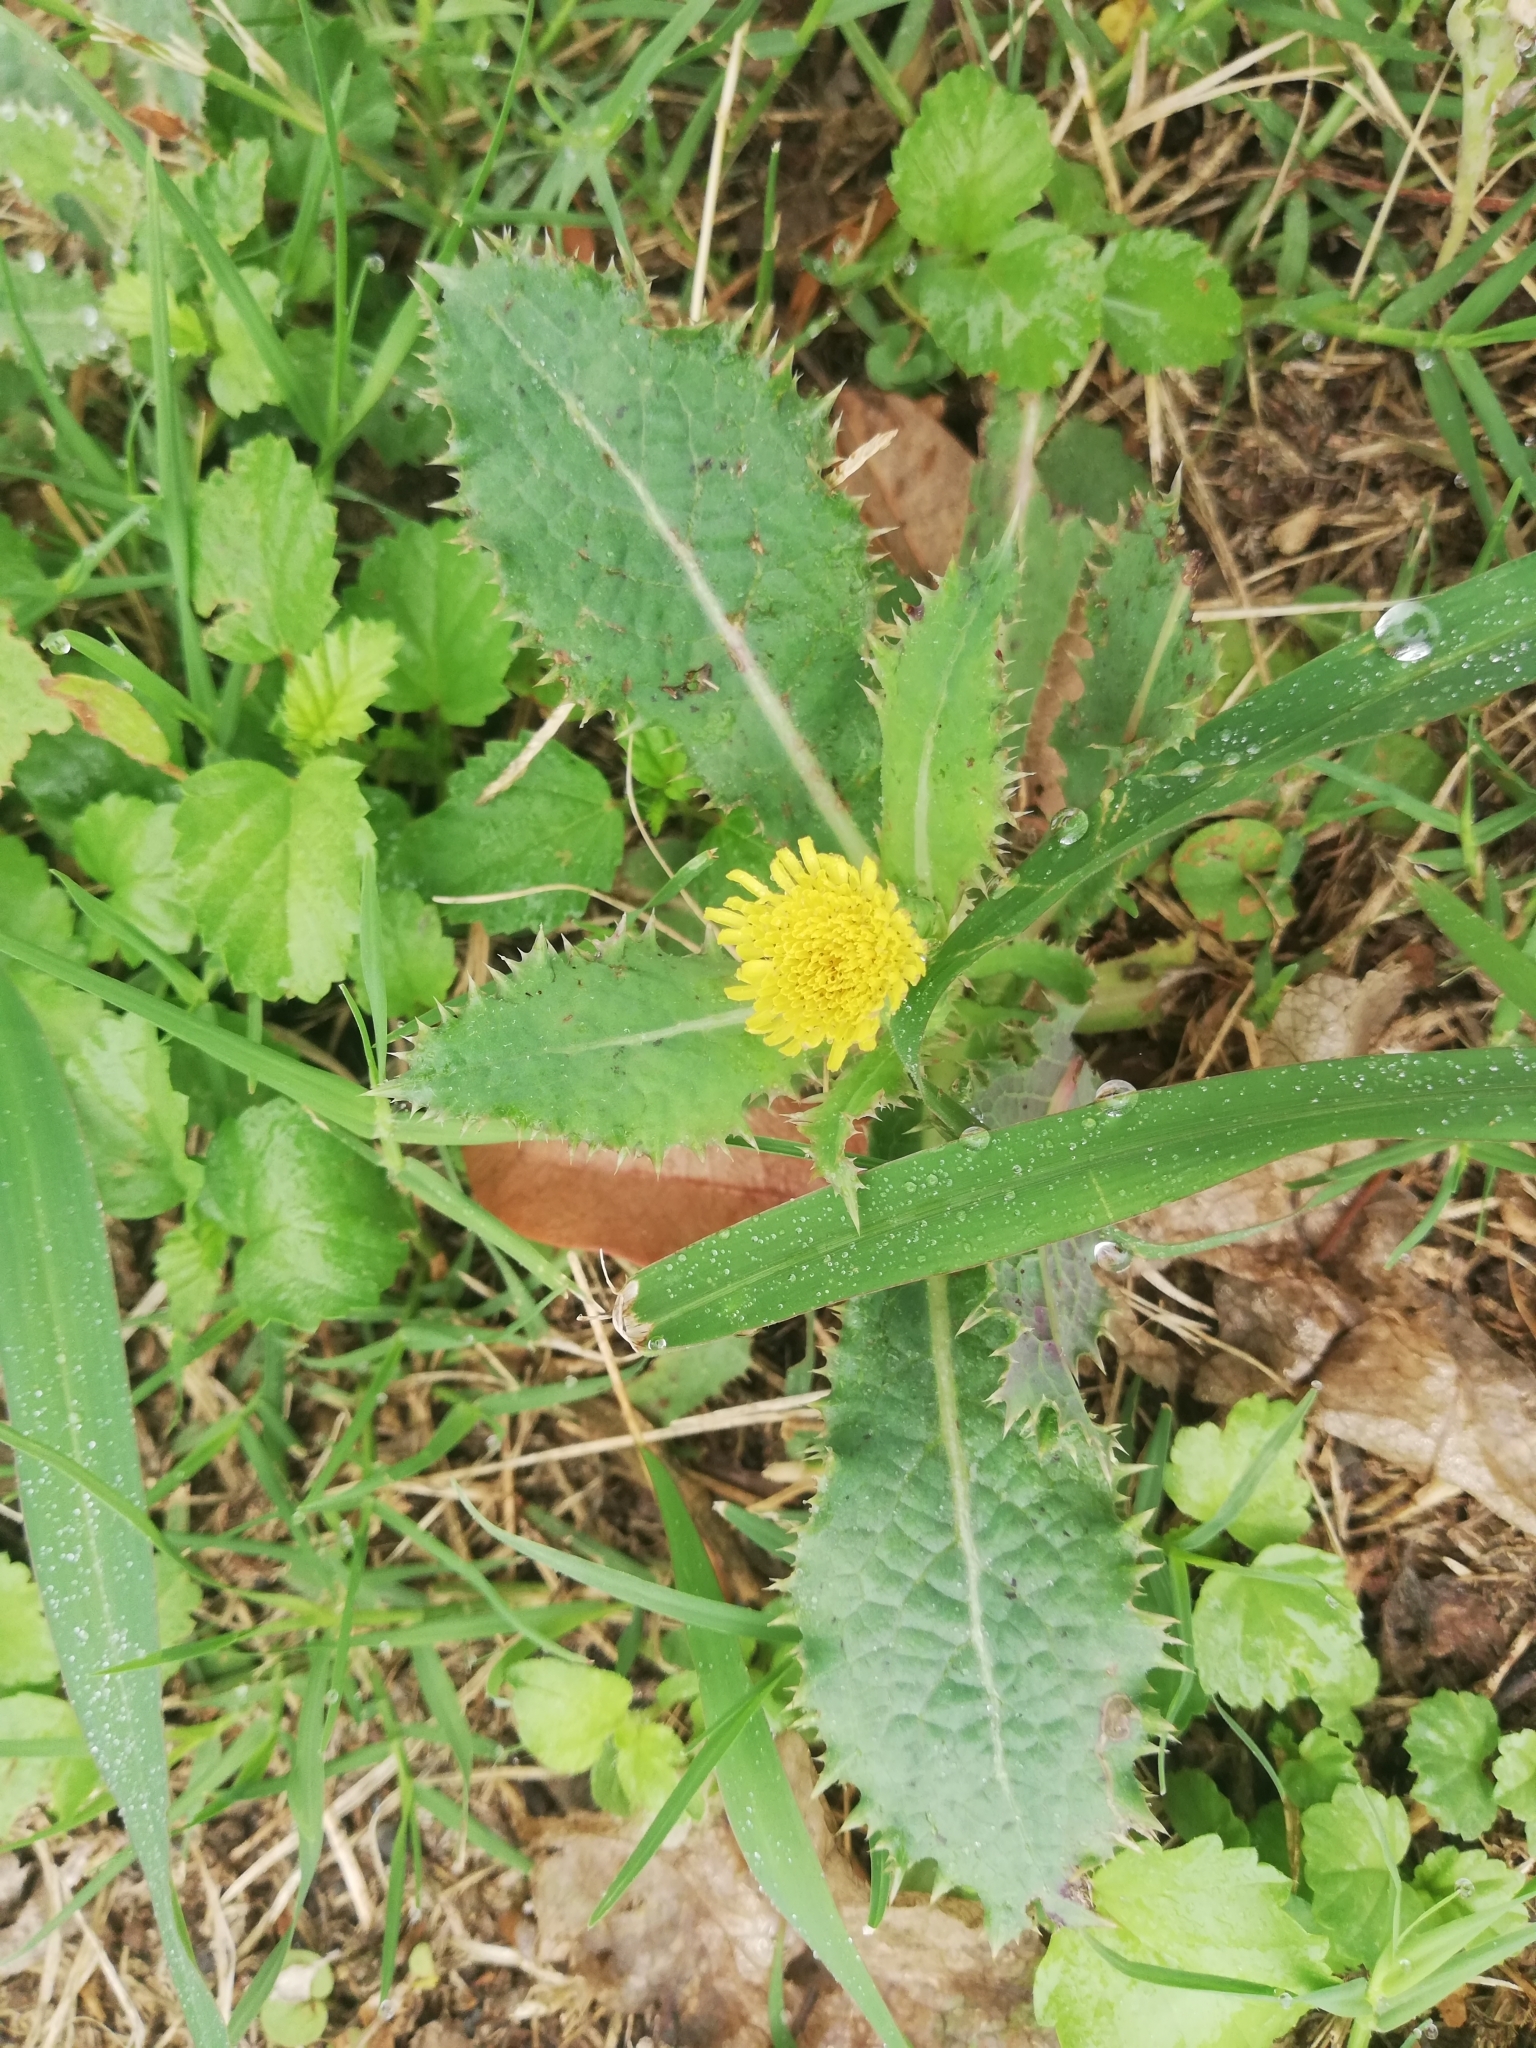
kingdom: Plantae
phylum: Tracheophyta
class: Magnoliopsida
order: Asterales
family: Asteraceae
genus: Sonchus
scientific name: Sonchus asper
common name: Prickly sow-thistle
